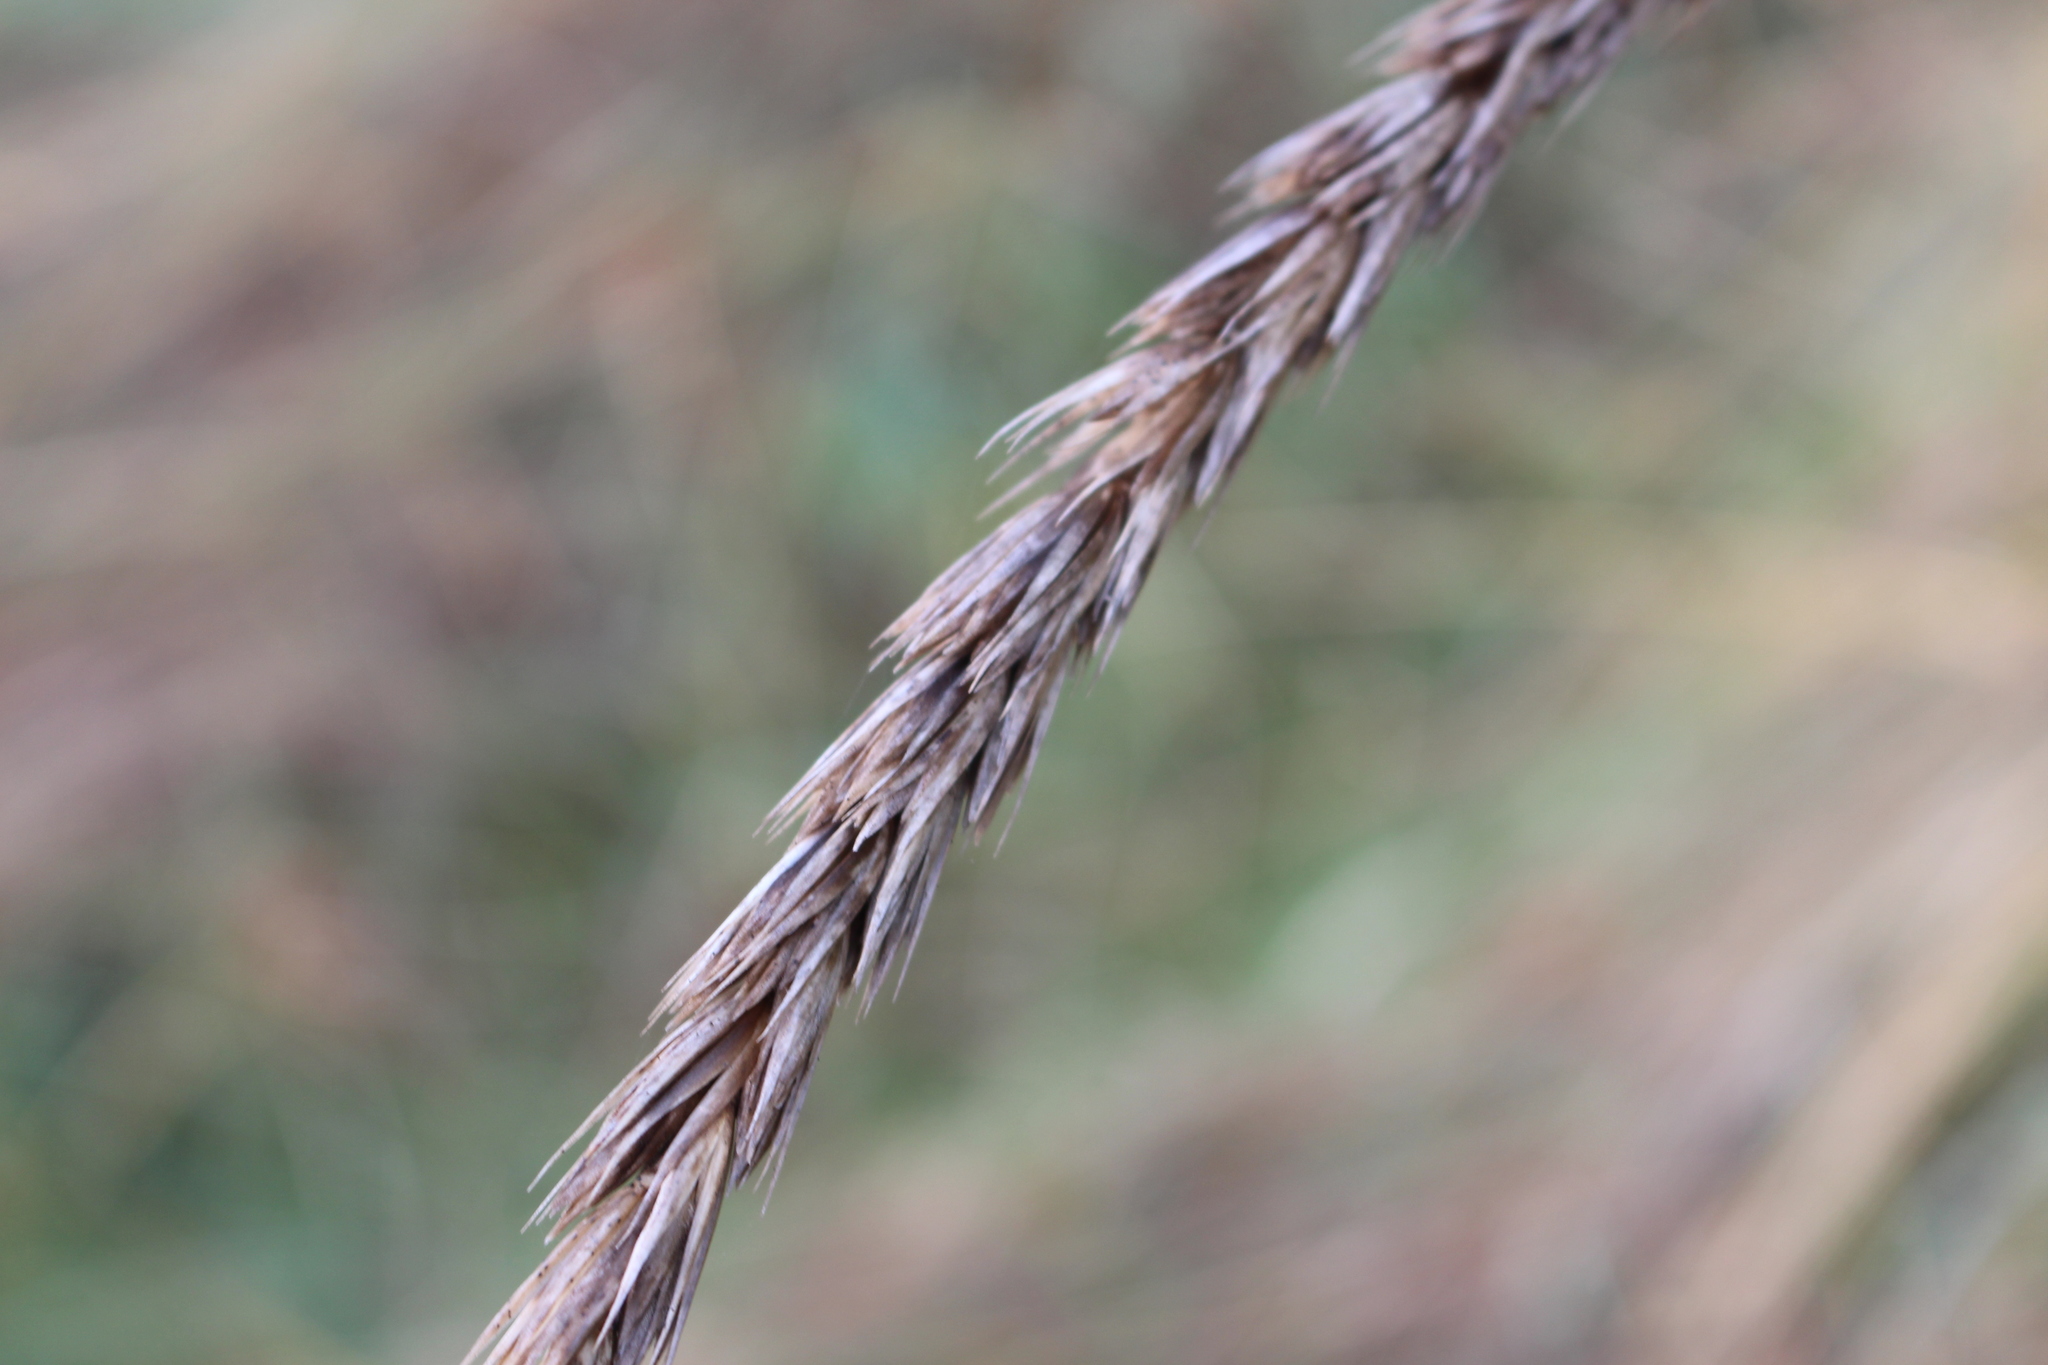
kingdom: Plantae
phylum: Tracheophyta
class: Liliopsida
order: Poales
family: Poaceae
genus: Leymus
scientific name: Leymus racemosus
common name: Mammoth wildrye
